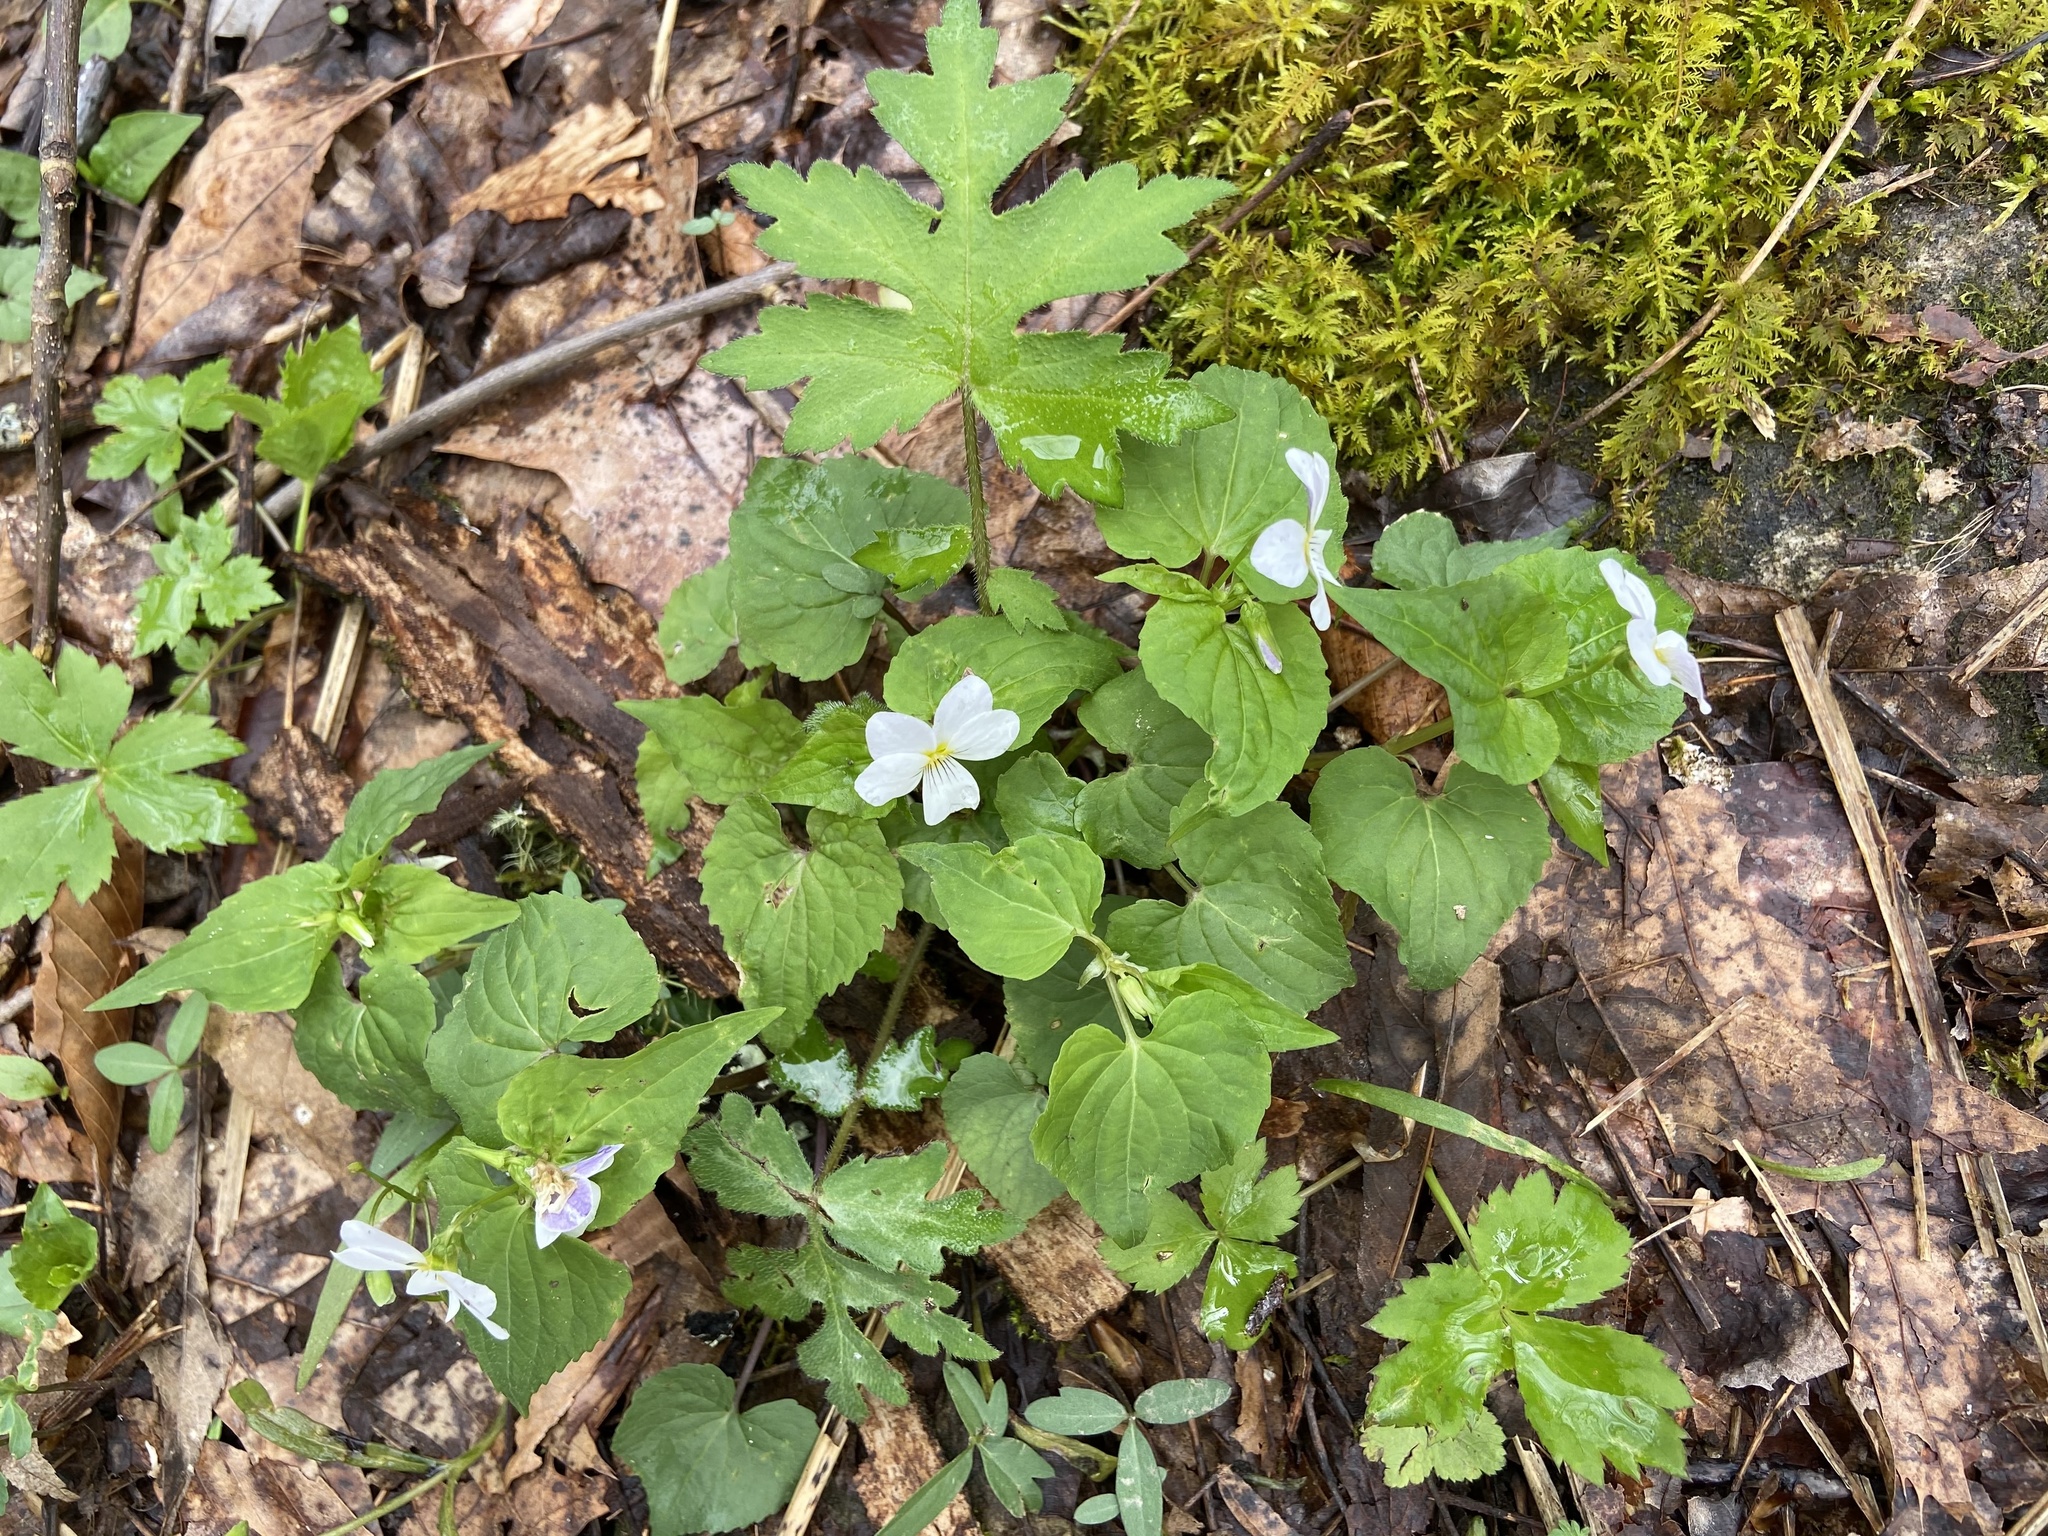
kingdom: Plantae
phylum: Tracheophyta
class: Magnoliopsida
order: Malpighiales
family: Violaceae
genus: Viola
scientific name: Viola canadensis
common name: Canada violet
